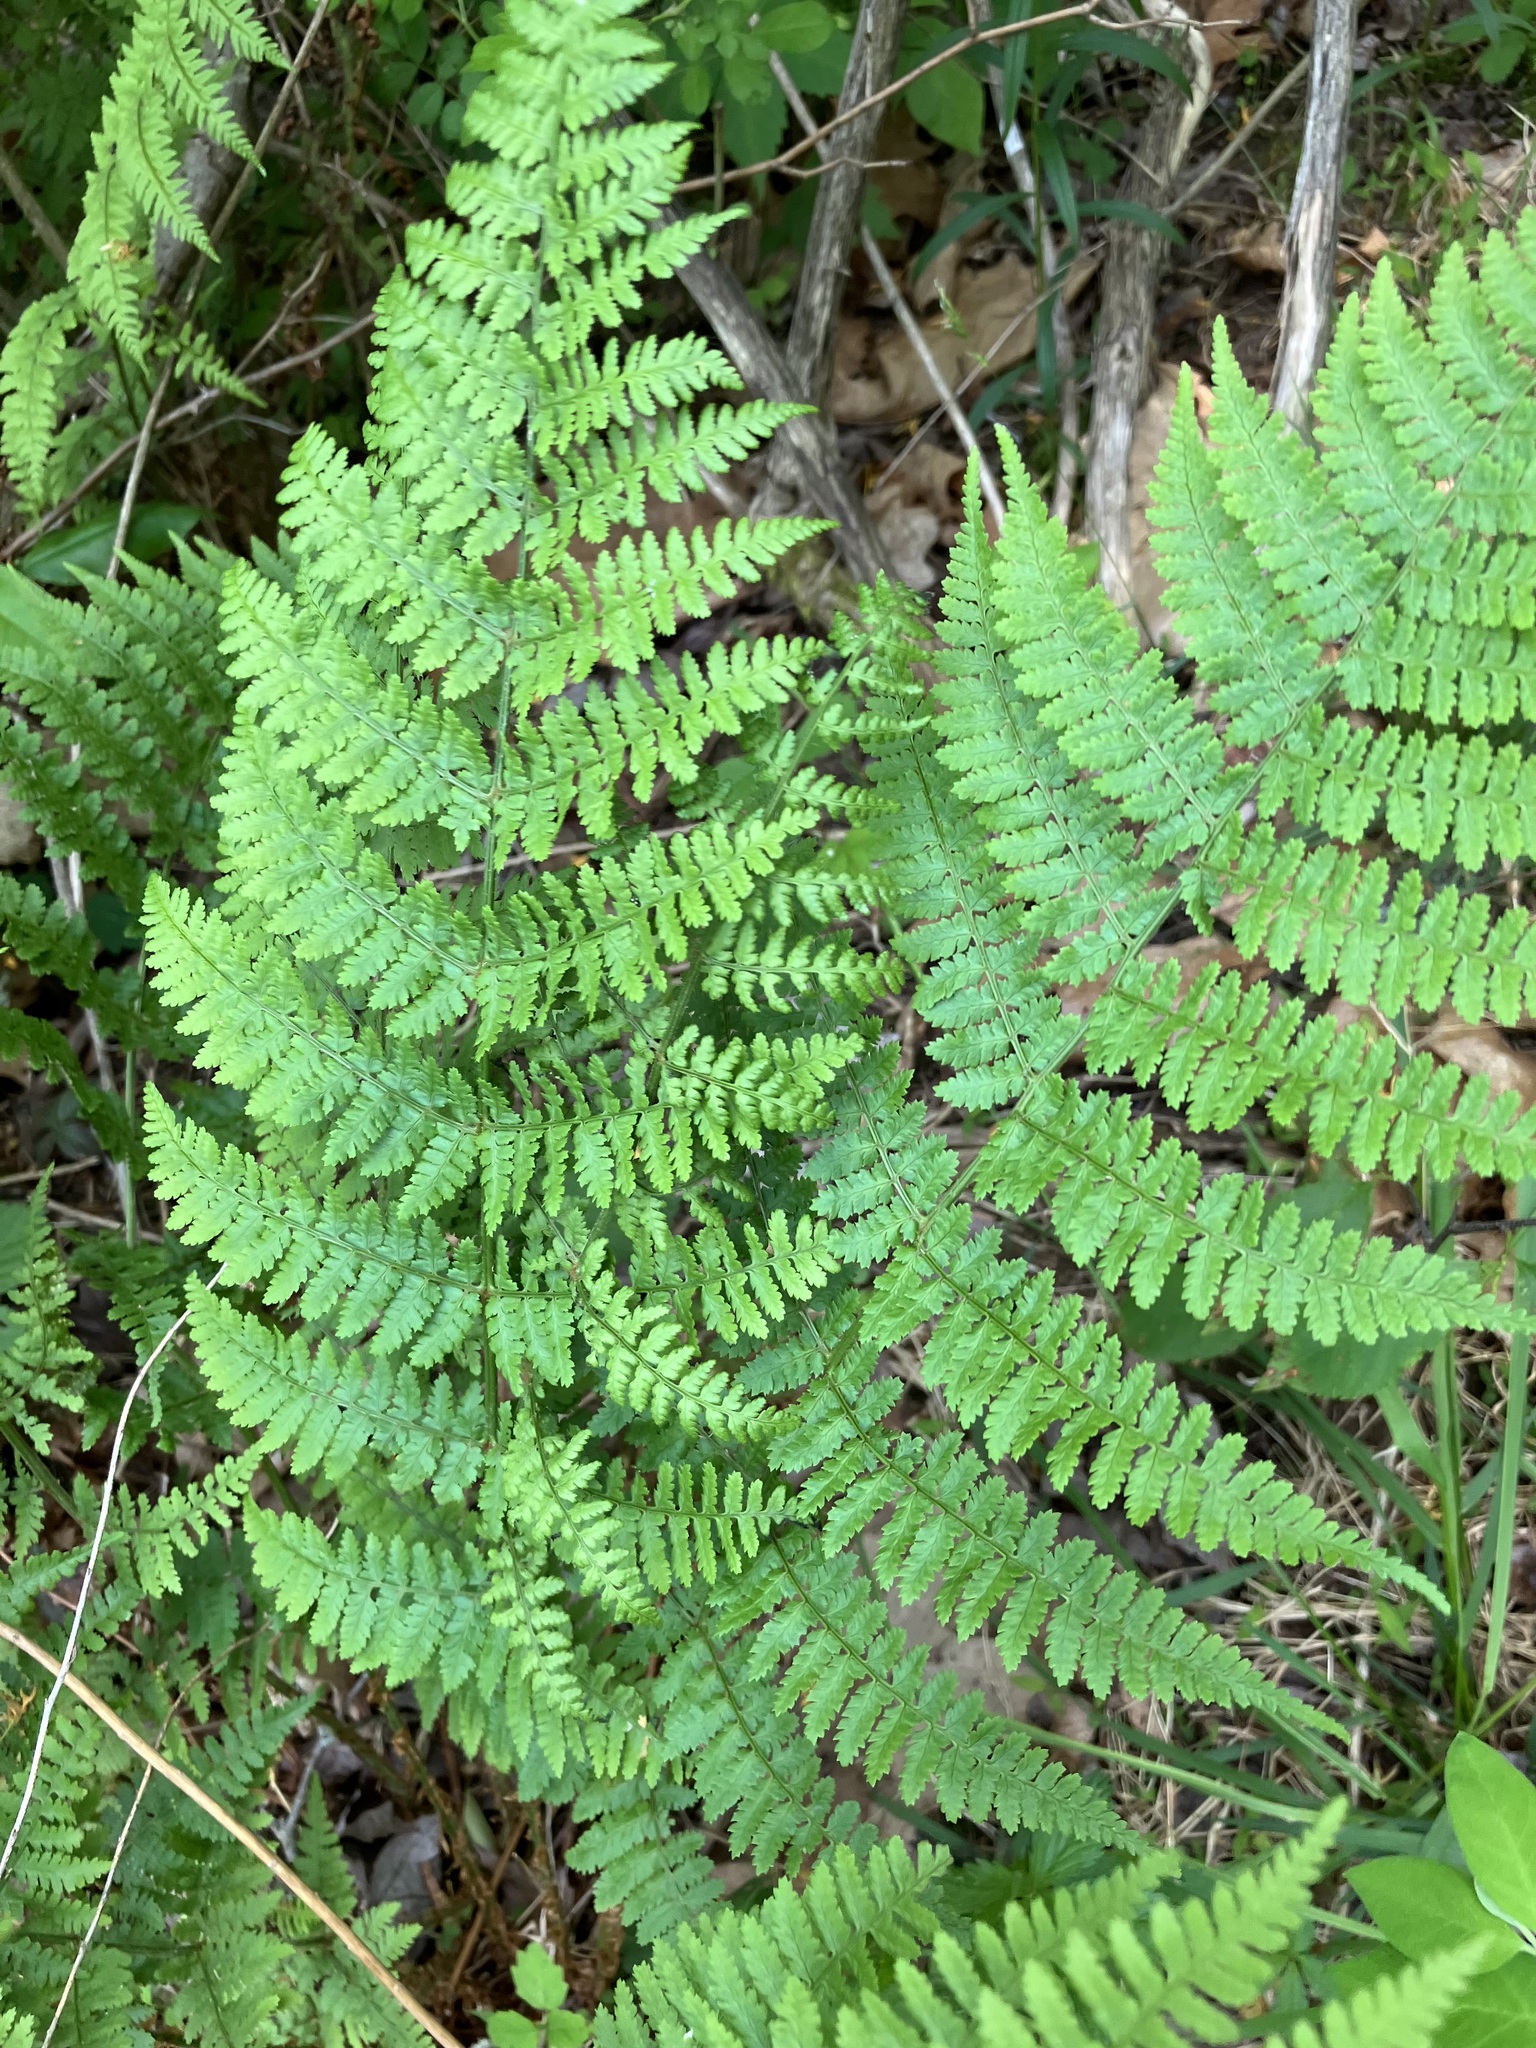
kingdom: Plantae
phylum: Tracheophyta
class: Polypodiopsida
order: Polypodiales
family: Dryopteridaceae
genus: Dryopteris
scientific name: Dryopteris intermedia
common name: Evergreen wood fern
